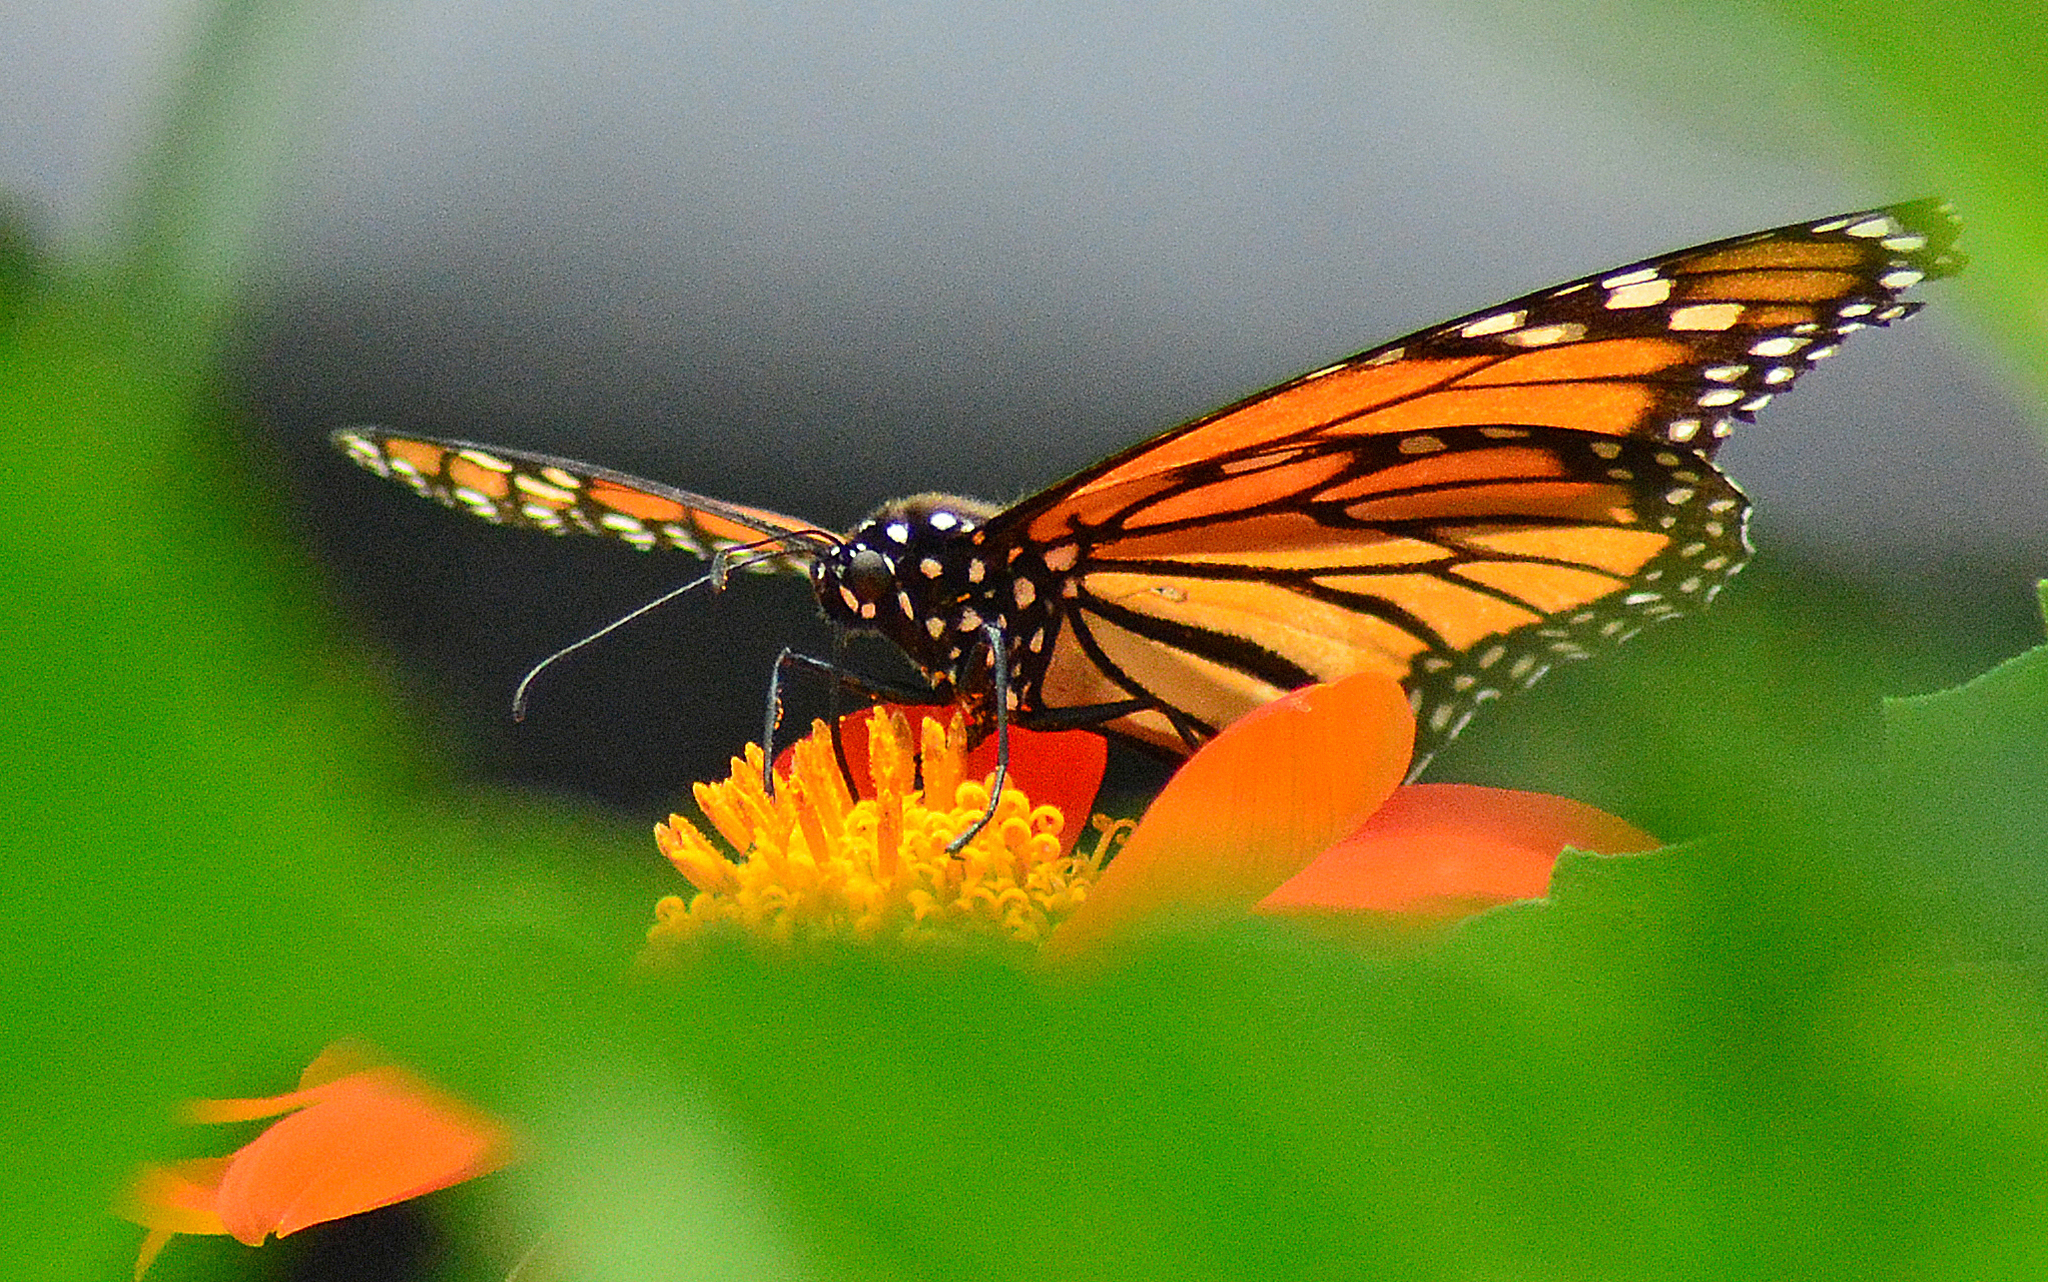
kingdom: Animalia
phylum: Arthropoda
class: Insecta
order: Lepidoptera
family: Nymphalidae
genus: Danaus
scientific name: Danaus plexippus
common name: Monarch
